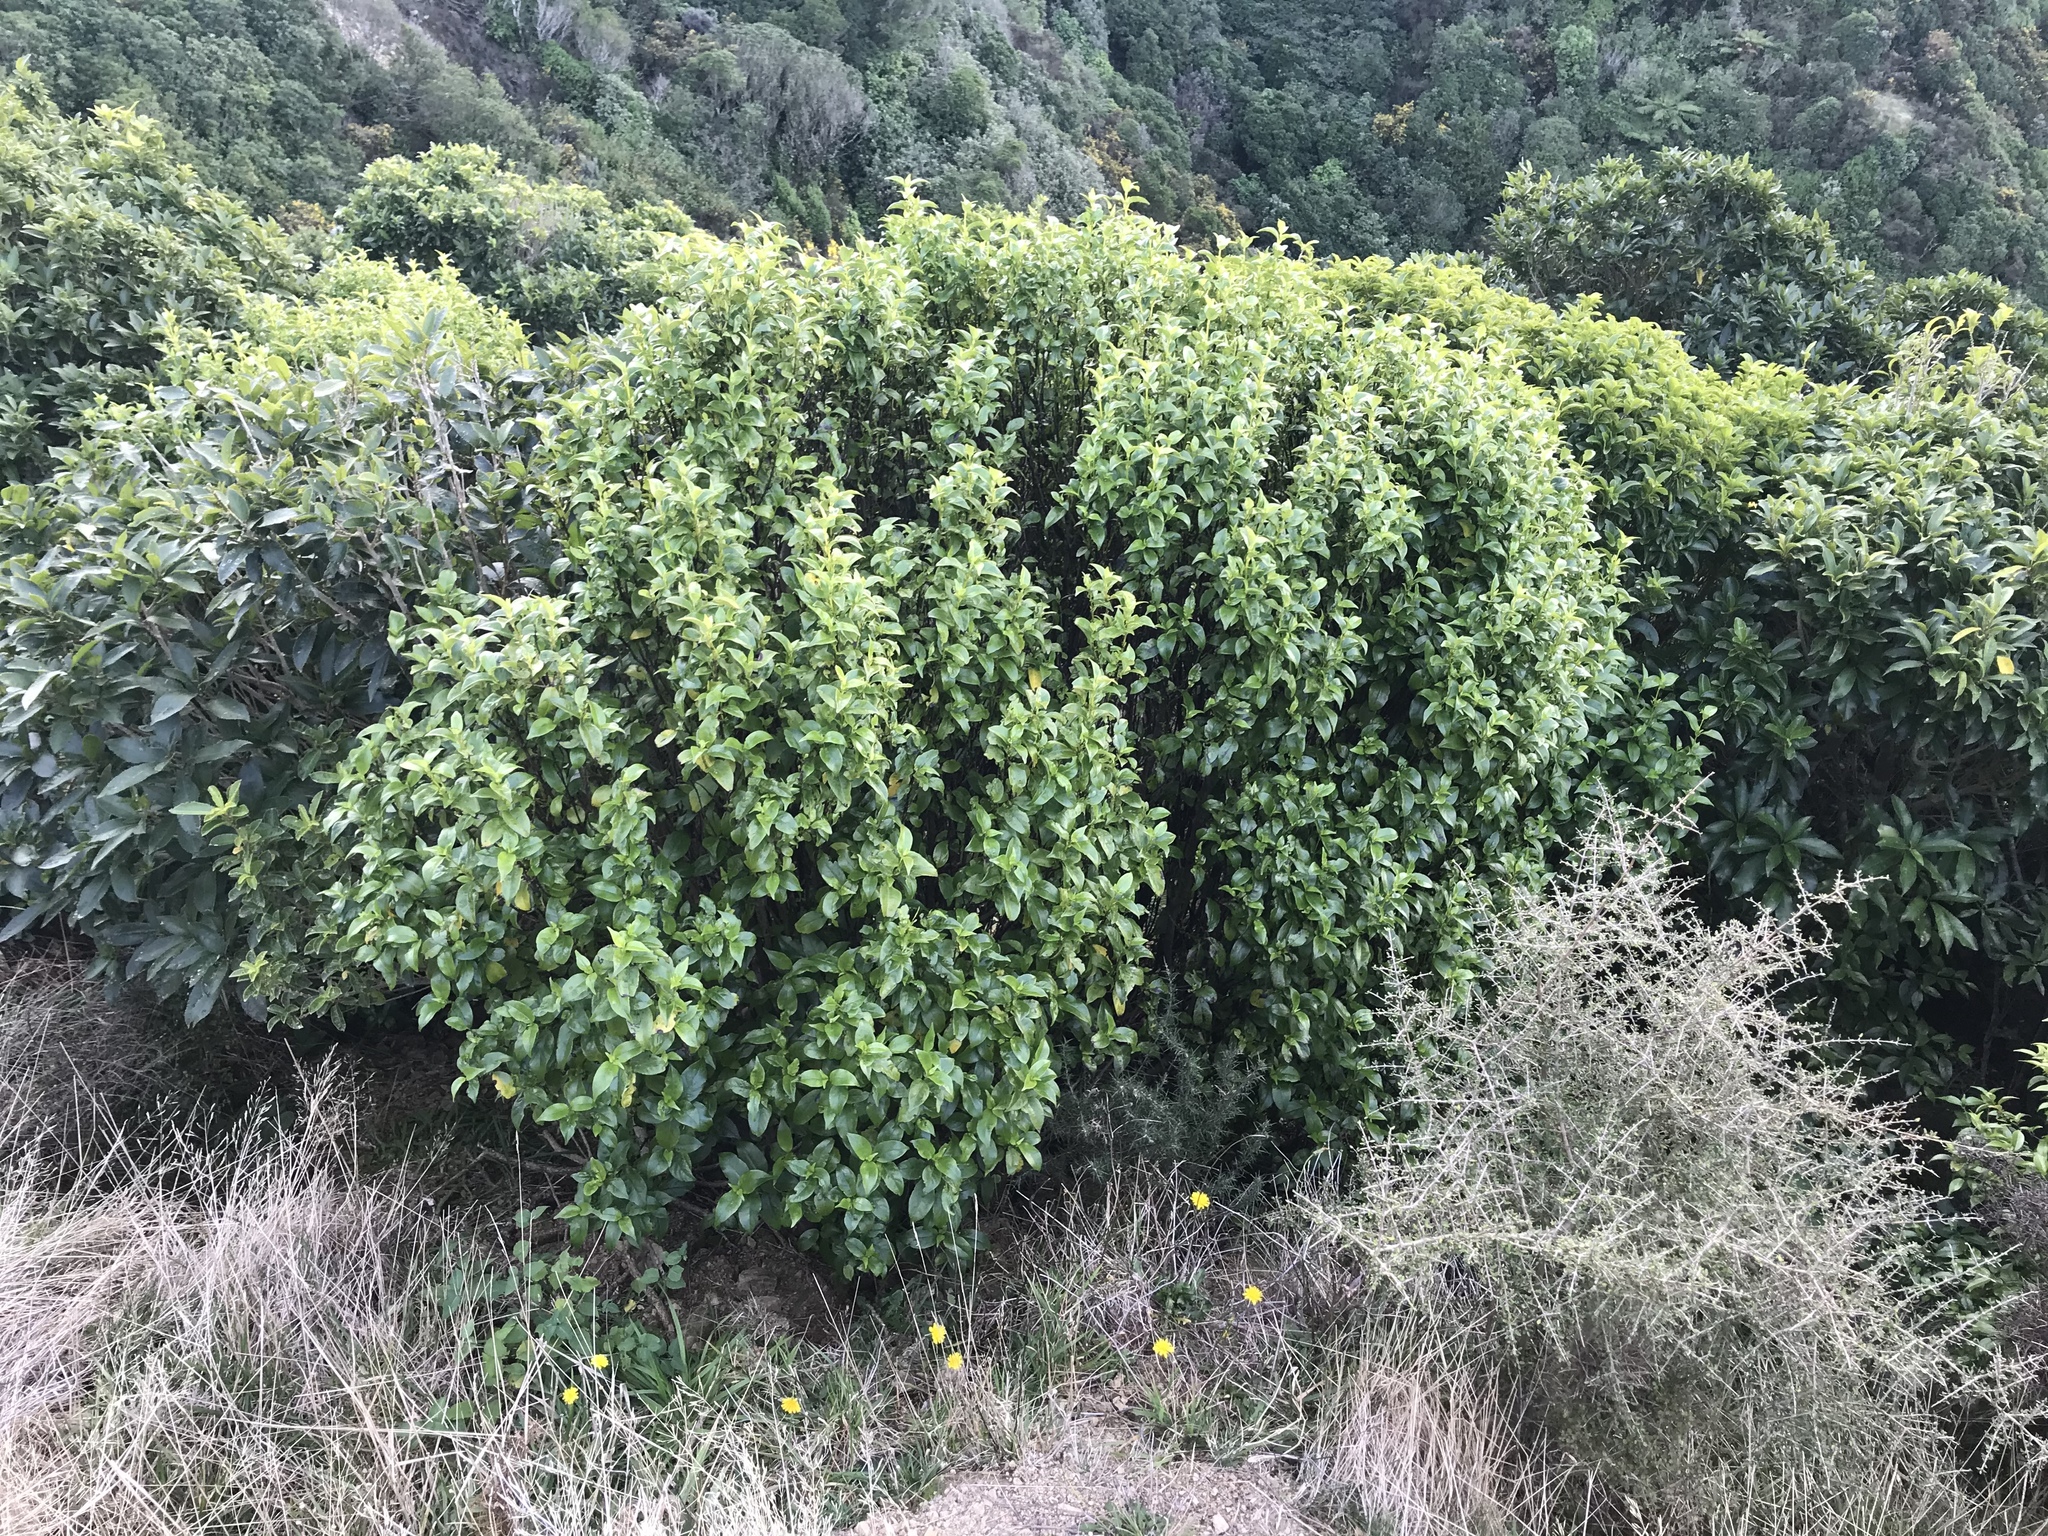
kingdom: Plantae
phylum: Tracheophyta
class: Magnoliopsida
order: Gentianales
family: Loganiaceae
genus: Geniostoma
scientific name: Geniostoma ligustrifolium
